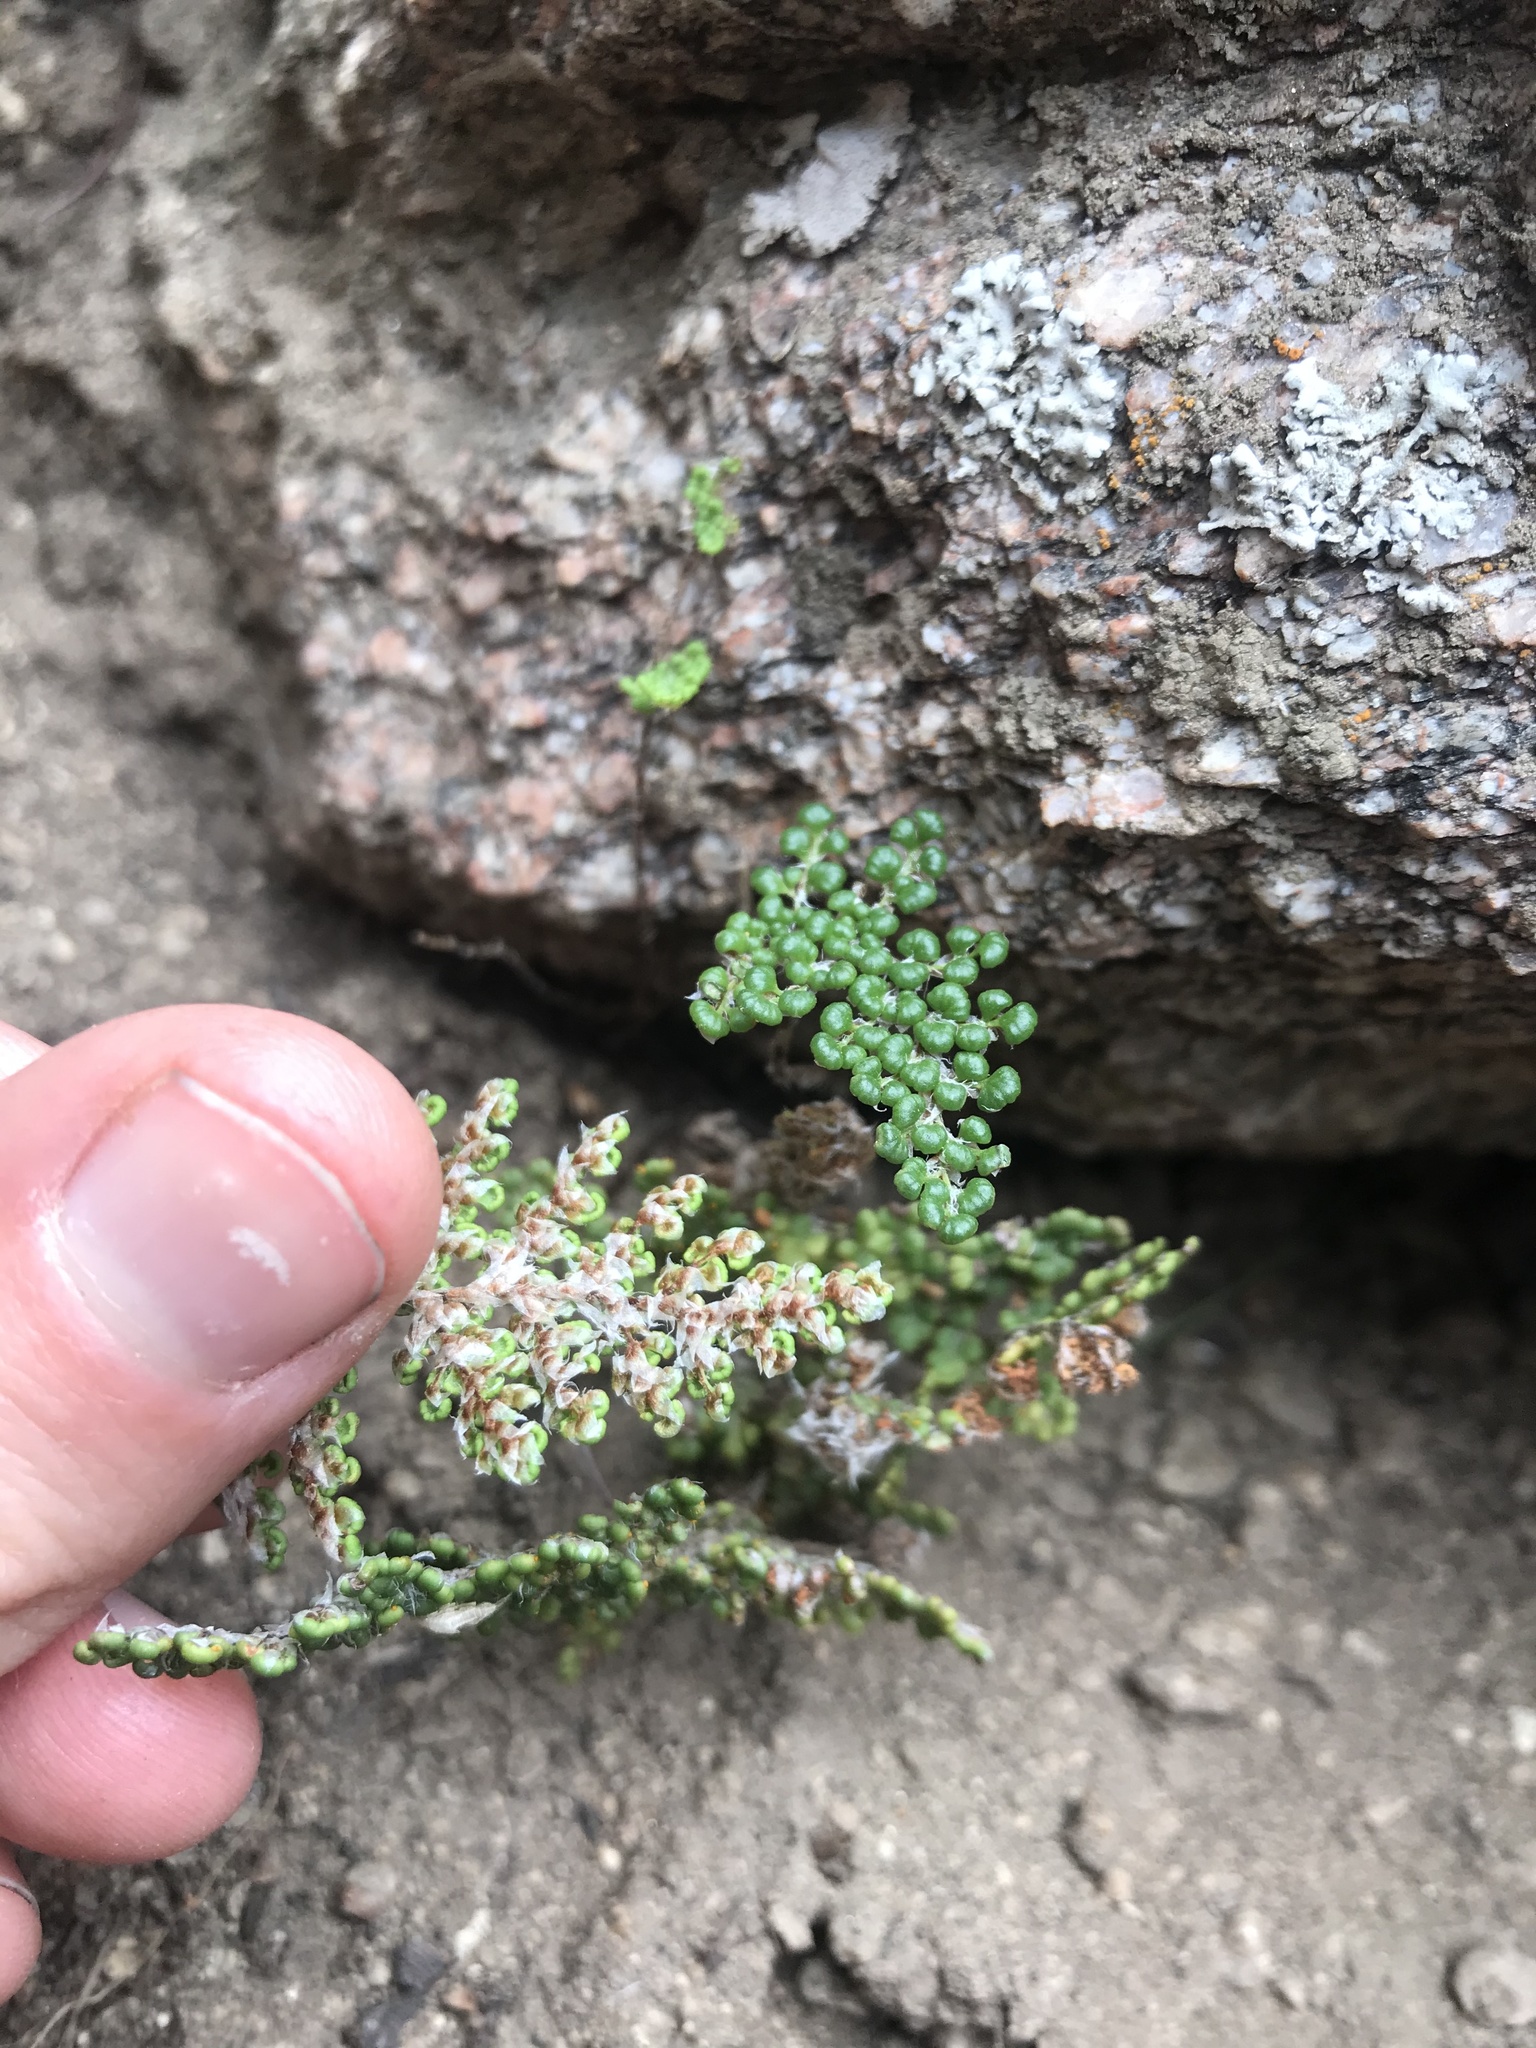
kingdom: Plantae
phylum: Tracheophyta
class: Polypodiopsida
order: Polypodiales
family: Pteridaceae
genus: Myriopteris
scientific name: Myriopteris covillei
